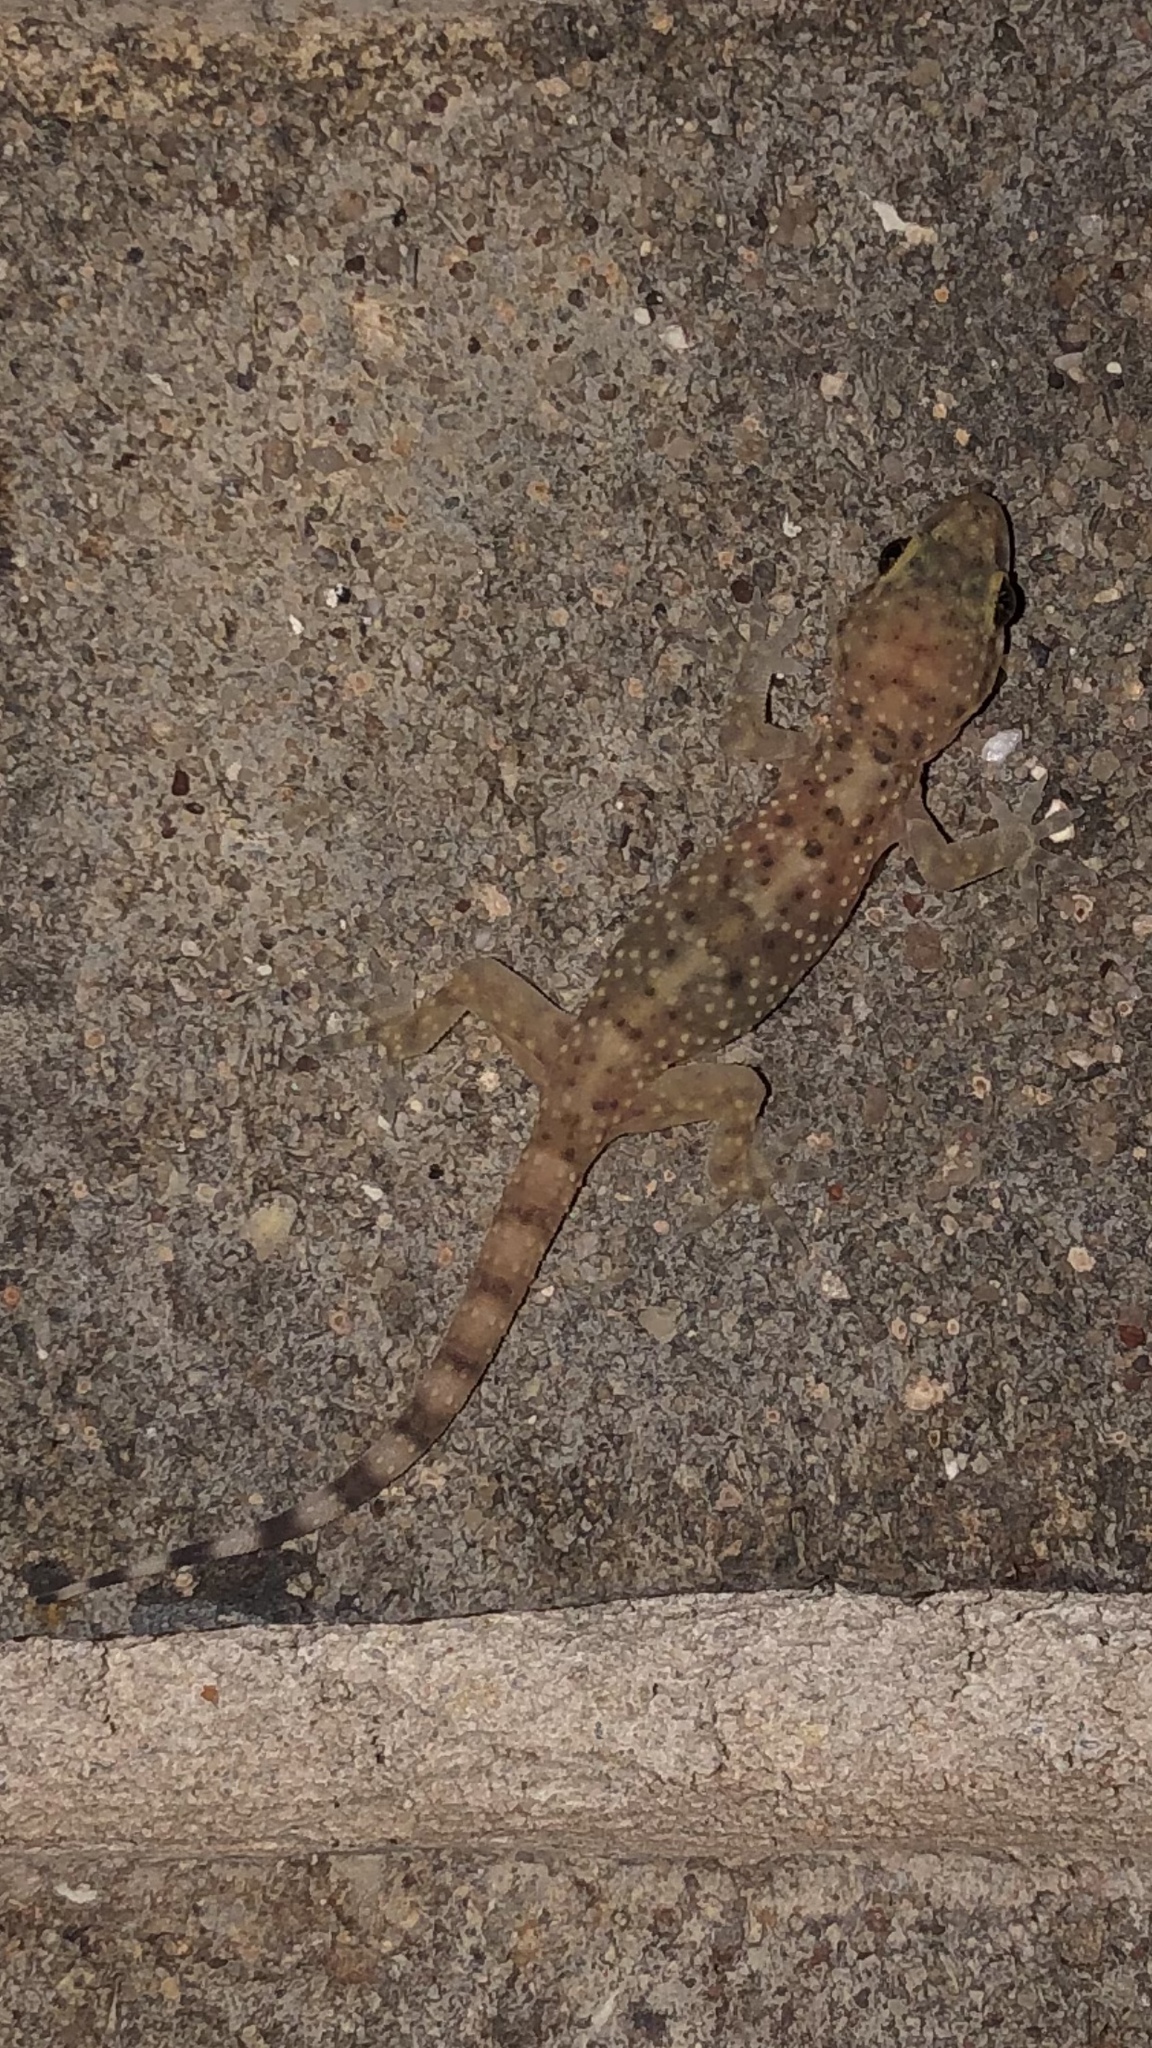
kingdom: Animalia
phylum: Chordata
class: Squamata
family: Gekkonidae
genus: Hemidactylus
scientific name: Hemidactylus turcicus
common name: Turkish gecko
